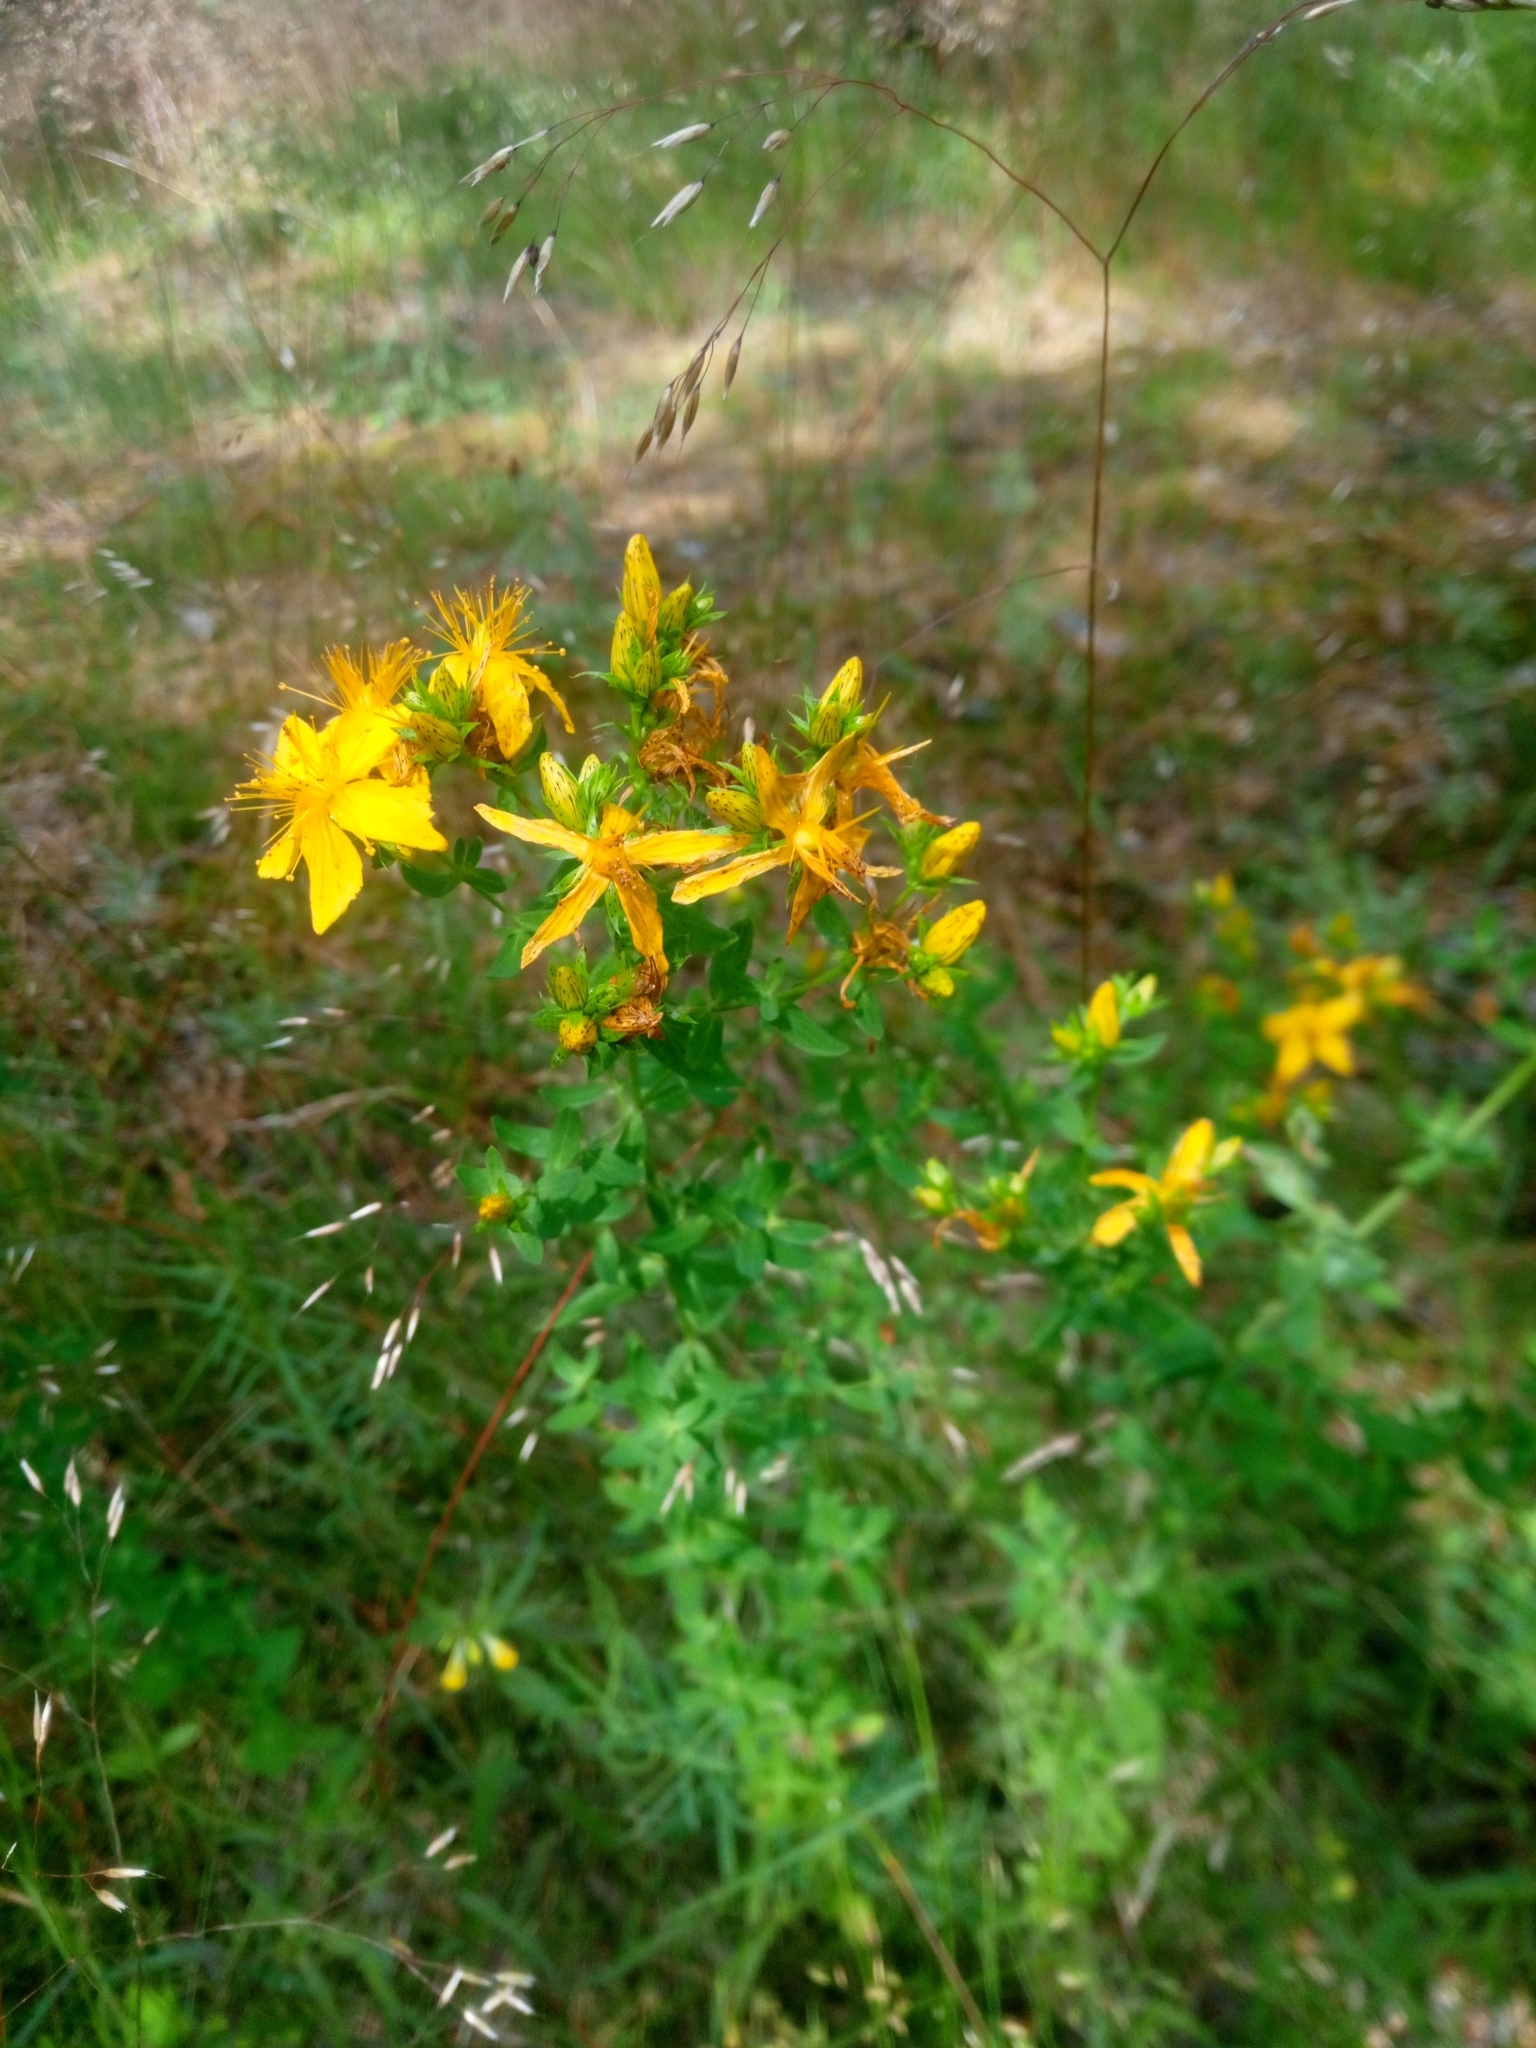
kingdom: Plantae
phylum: Tracheophyta
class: Magnoliopsida
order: Malpighiales
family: Hypericaceae
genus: Hypericum
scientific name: Hypericum perforatum
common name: Common st. johnswort
